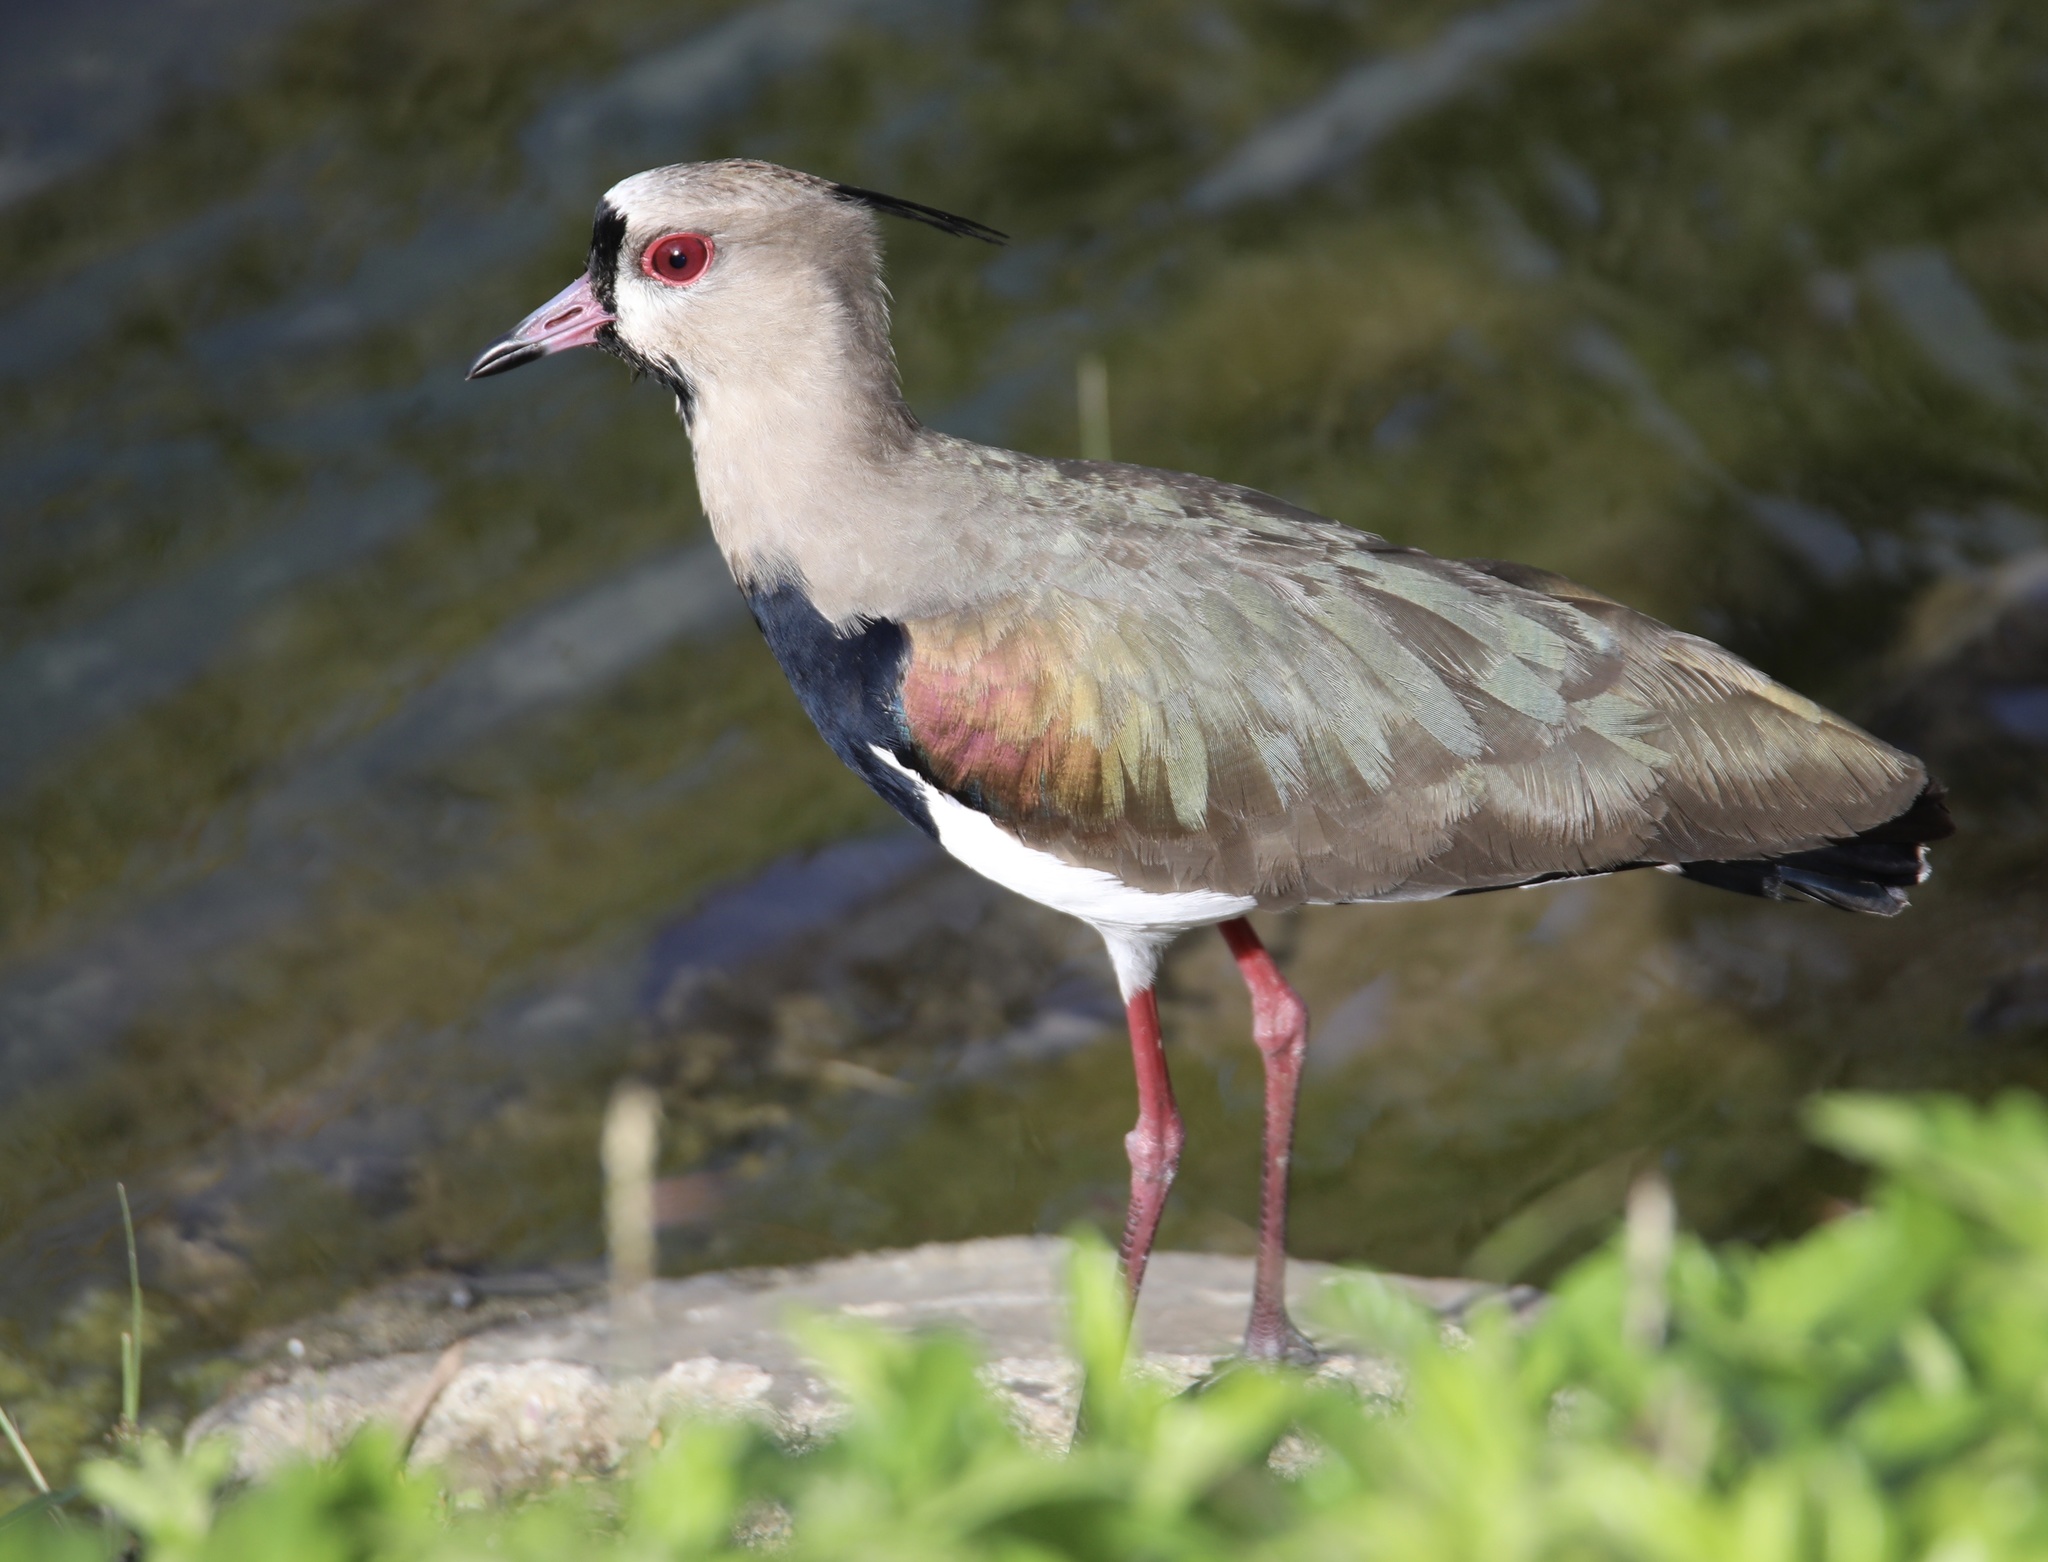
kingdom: Animalia
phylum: Chordata
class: Aves
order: Charadriiformes
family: Charadriidae
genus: Vanellus
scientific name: Vanellus chilensis
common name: Southern lapwing
